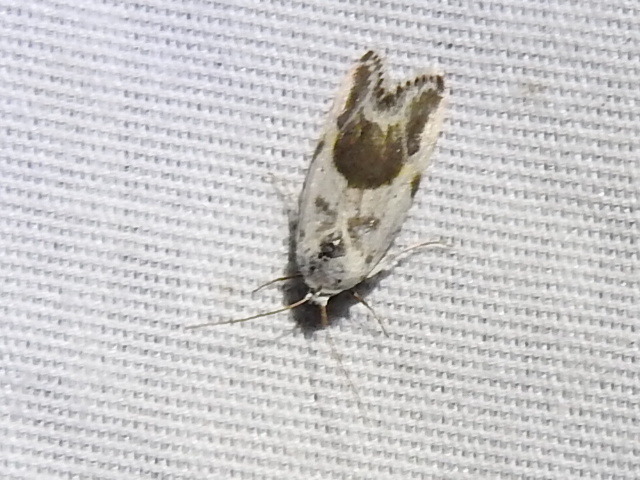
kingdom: Animalia
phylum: Arthropoda
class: Insecta
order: Lepidoptera
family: Noctuidae
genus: Acontia
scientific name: Acontia candefacta
